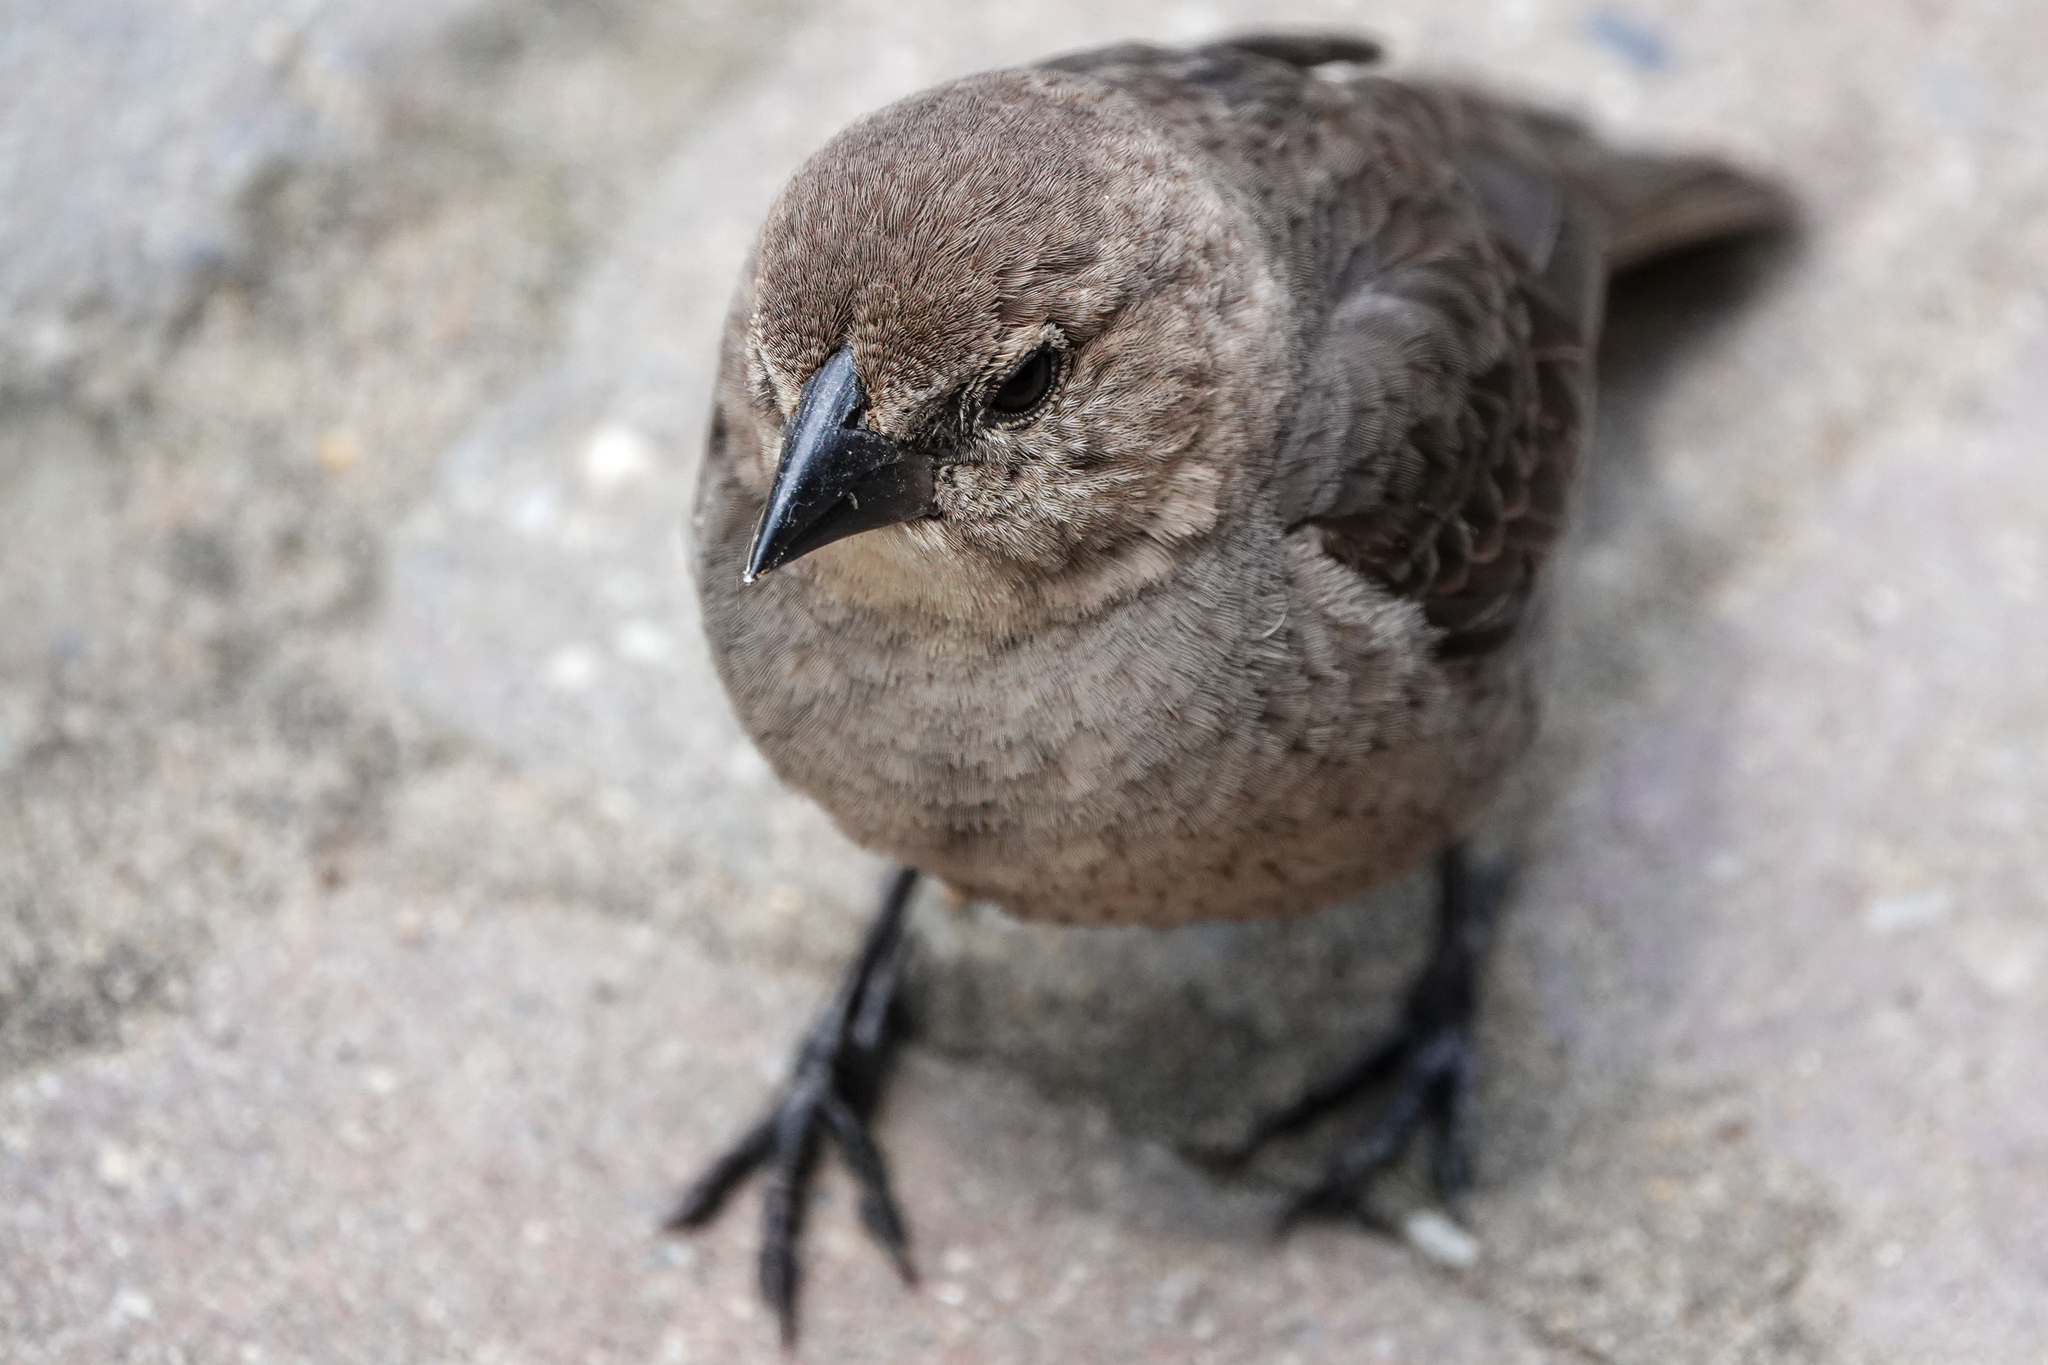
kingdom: Animalia
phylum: Chordata
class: Aves
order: Passeriformes
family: Icteridae
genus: Molothrus
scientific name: Molothrus ater
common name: Brown-headed cowbird
